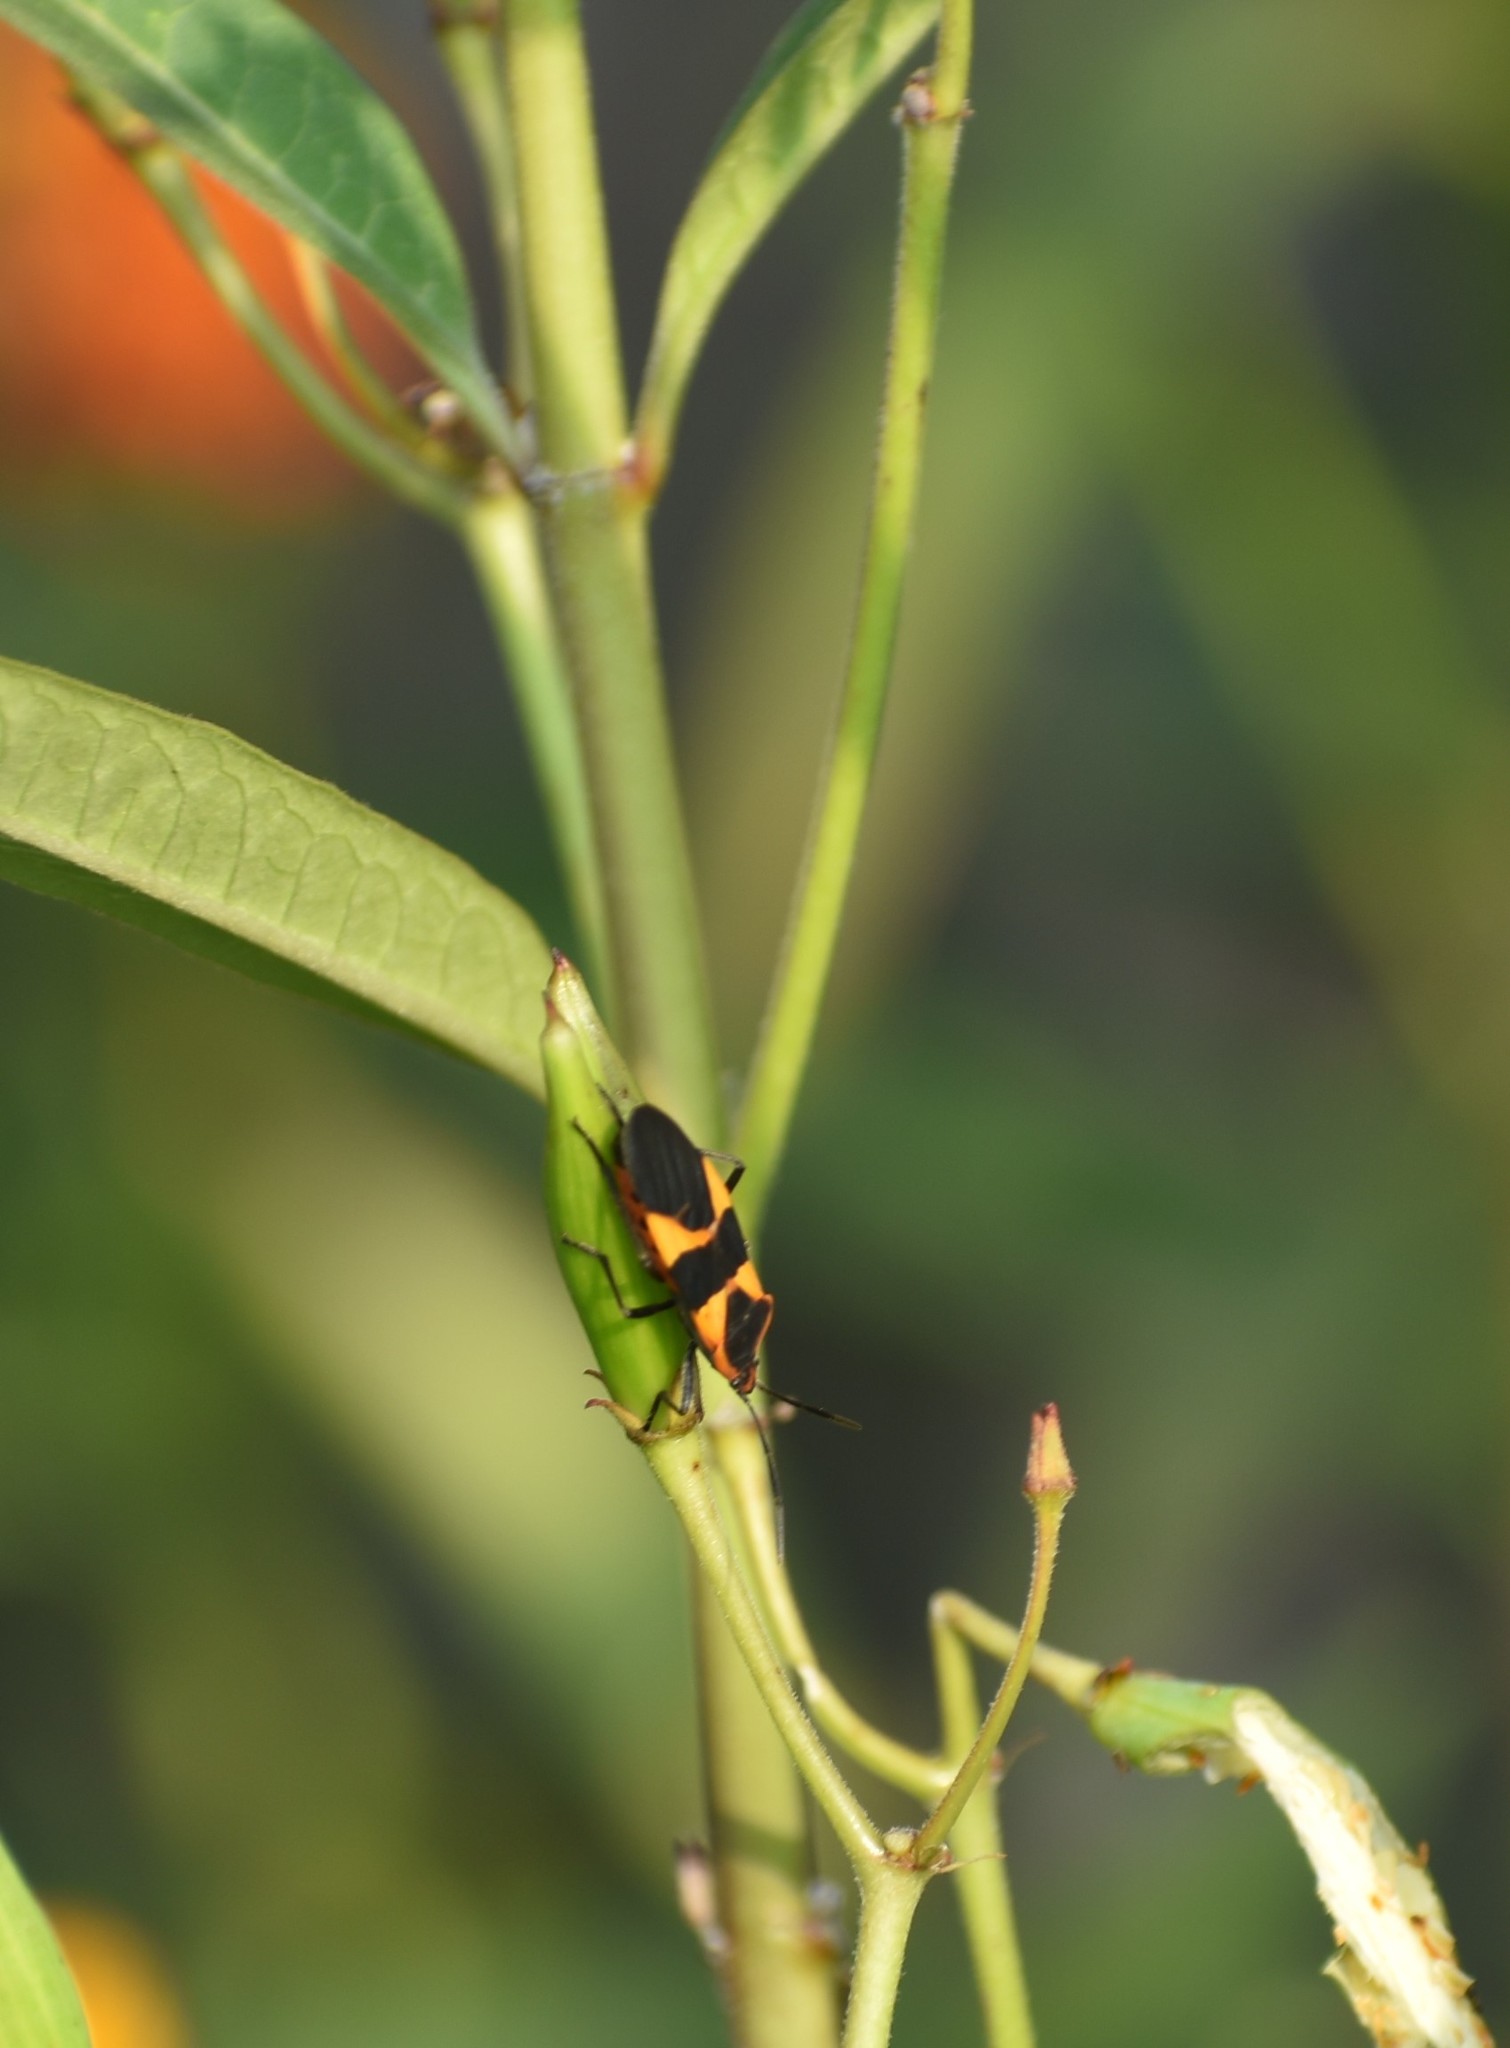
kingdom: Animalia
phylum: Arthropoda
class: Insecta
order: Hemiptera
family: Lygaeidae
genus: Oncopeltus
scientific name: Oncopeltus fasciatus
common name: Large milkweed bug
